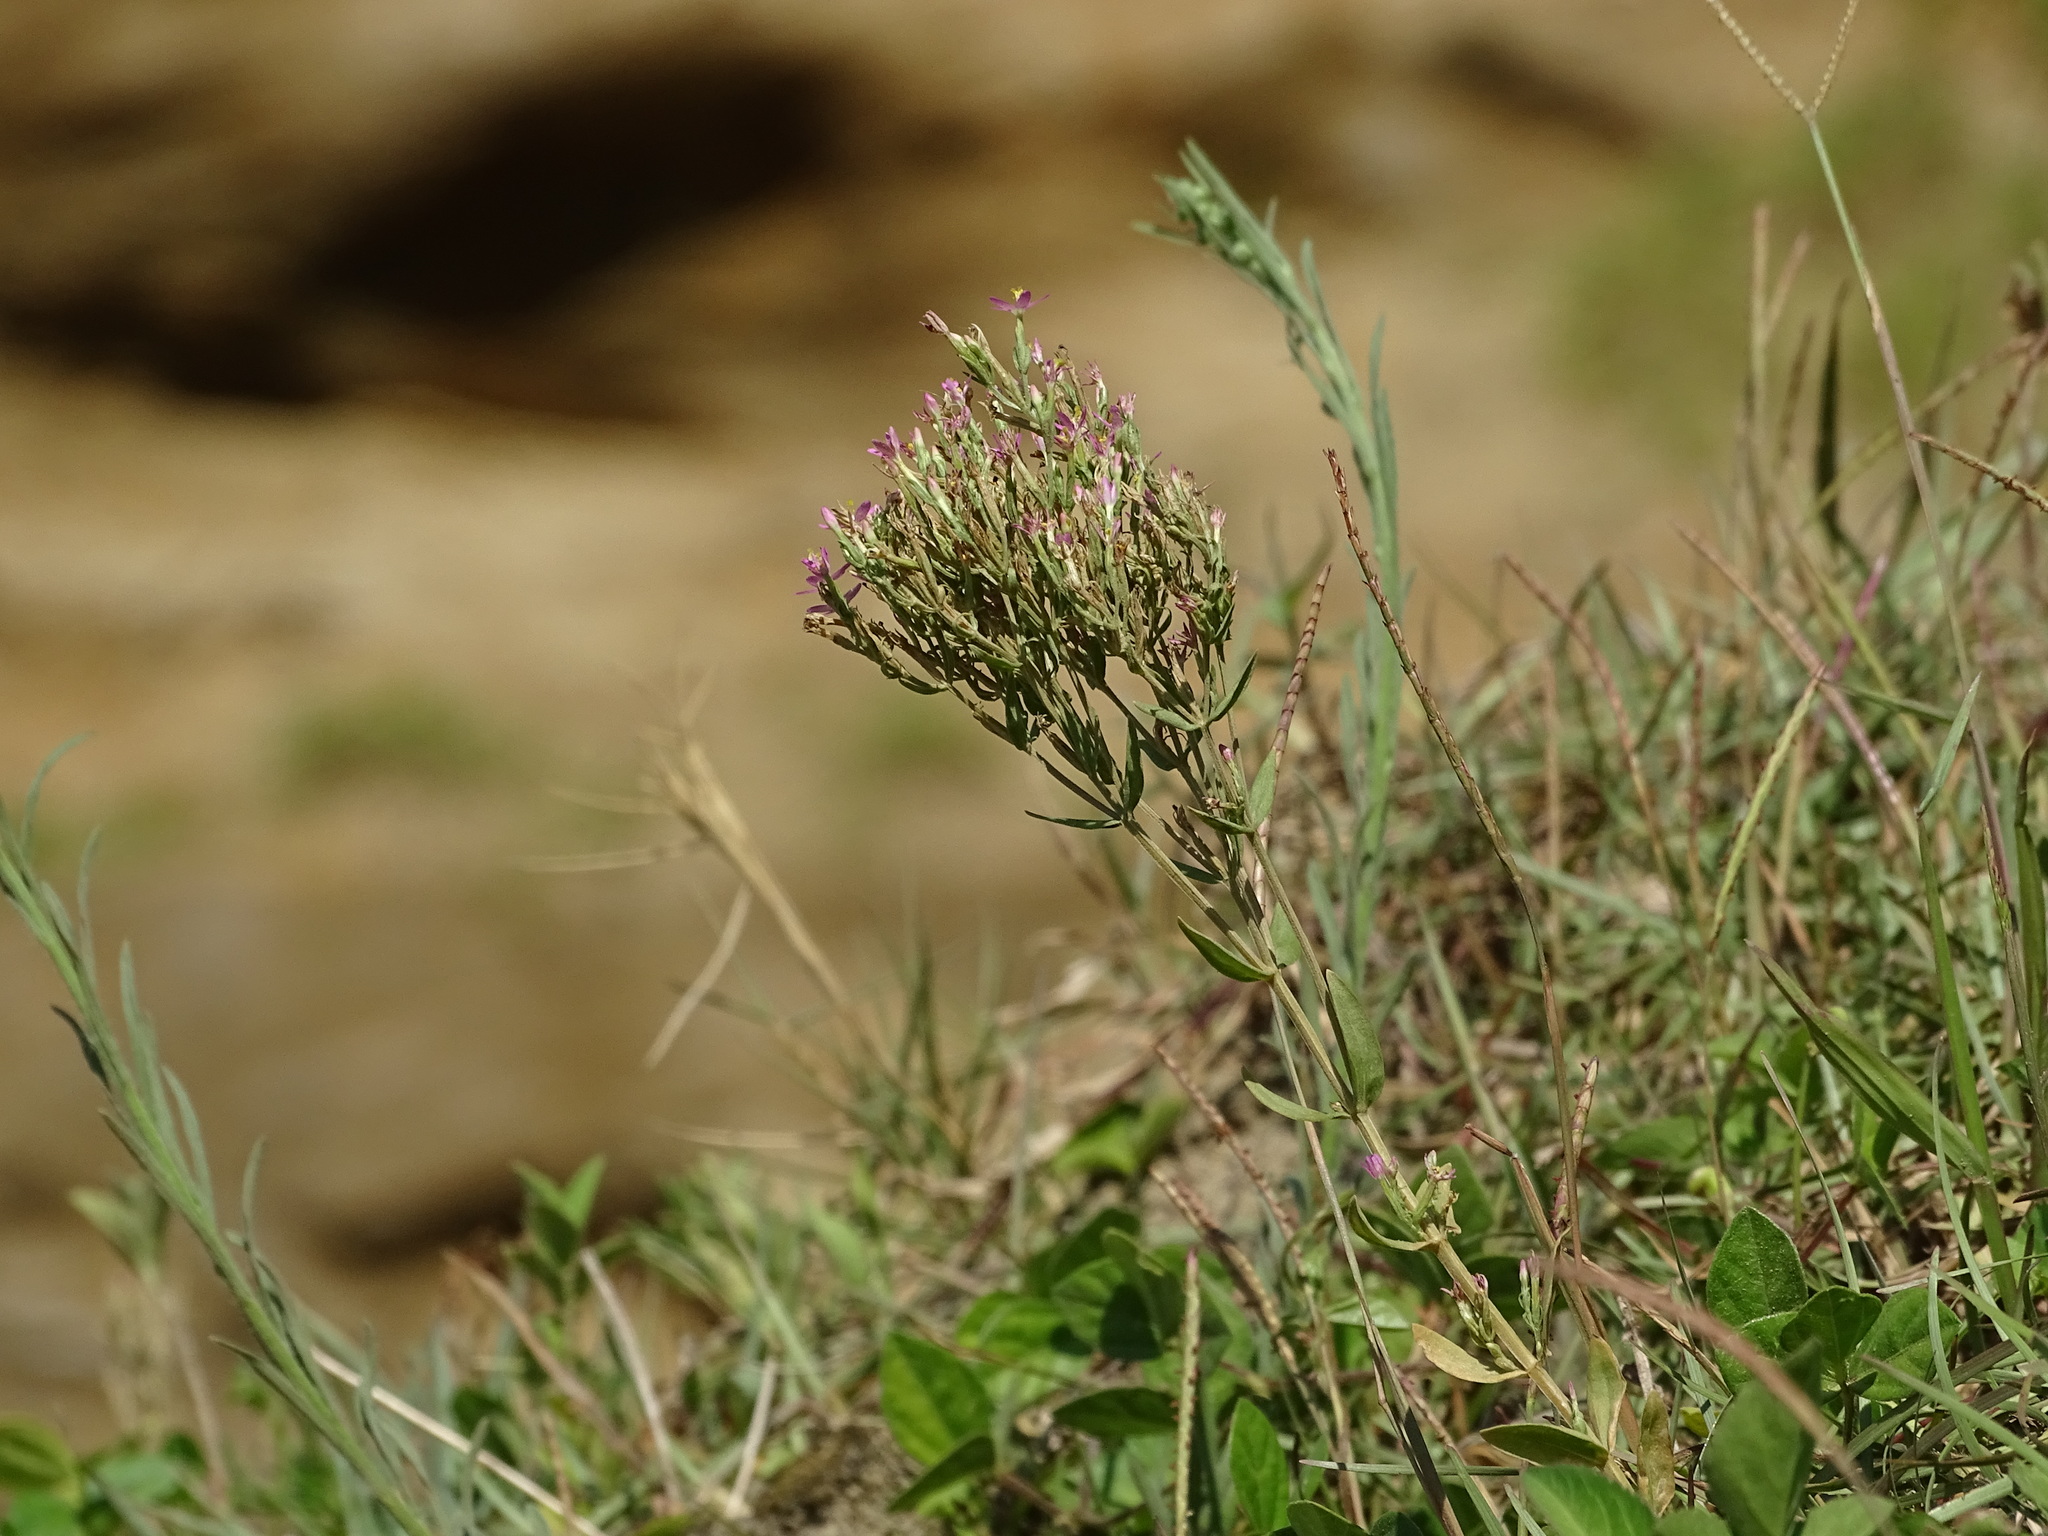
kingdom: Plantae
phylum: Tracheophyta
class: Magnoliopsida
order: Gentianales
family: Gentianaceae
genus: Centaurium
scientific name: Centaurium pulchellum
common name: Lesser centaury
